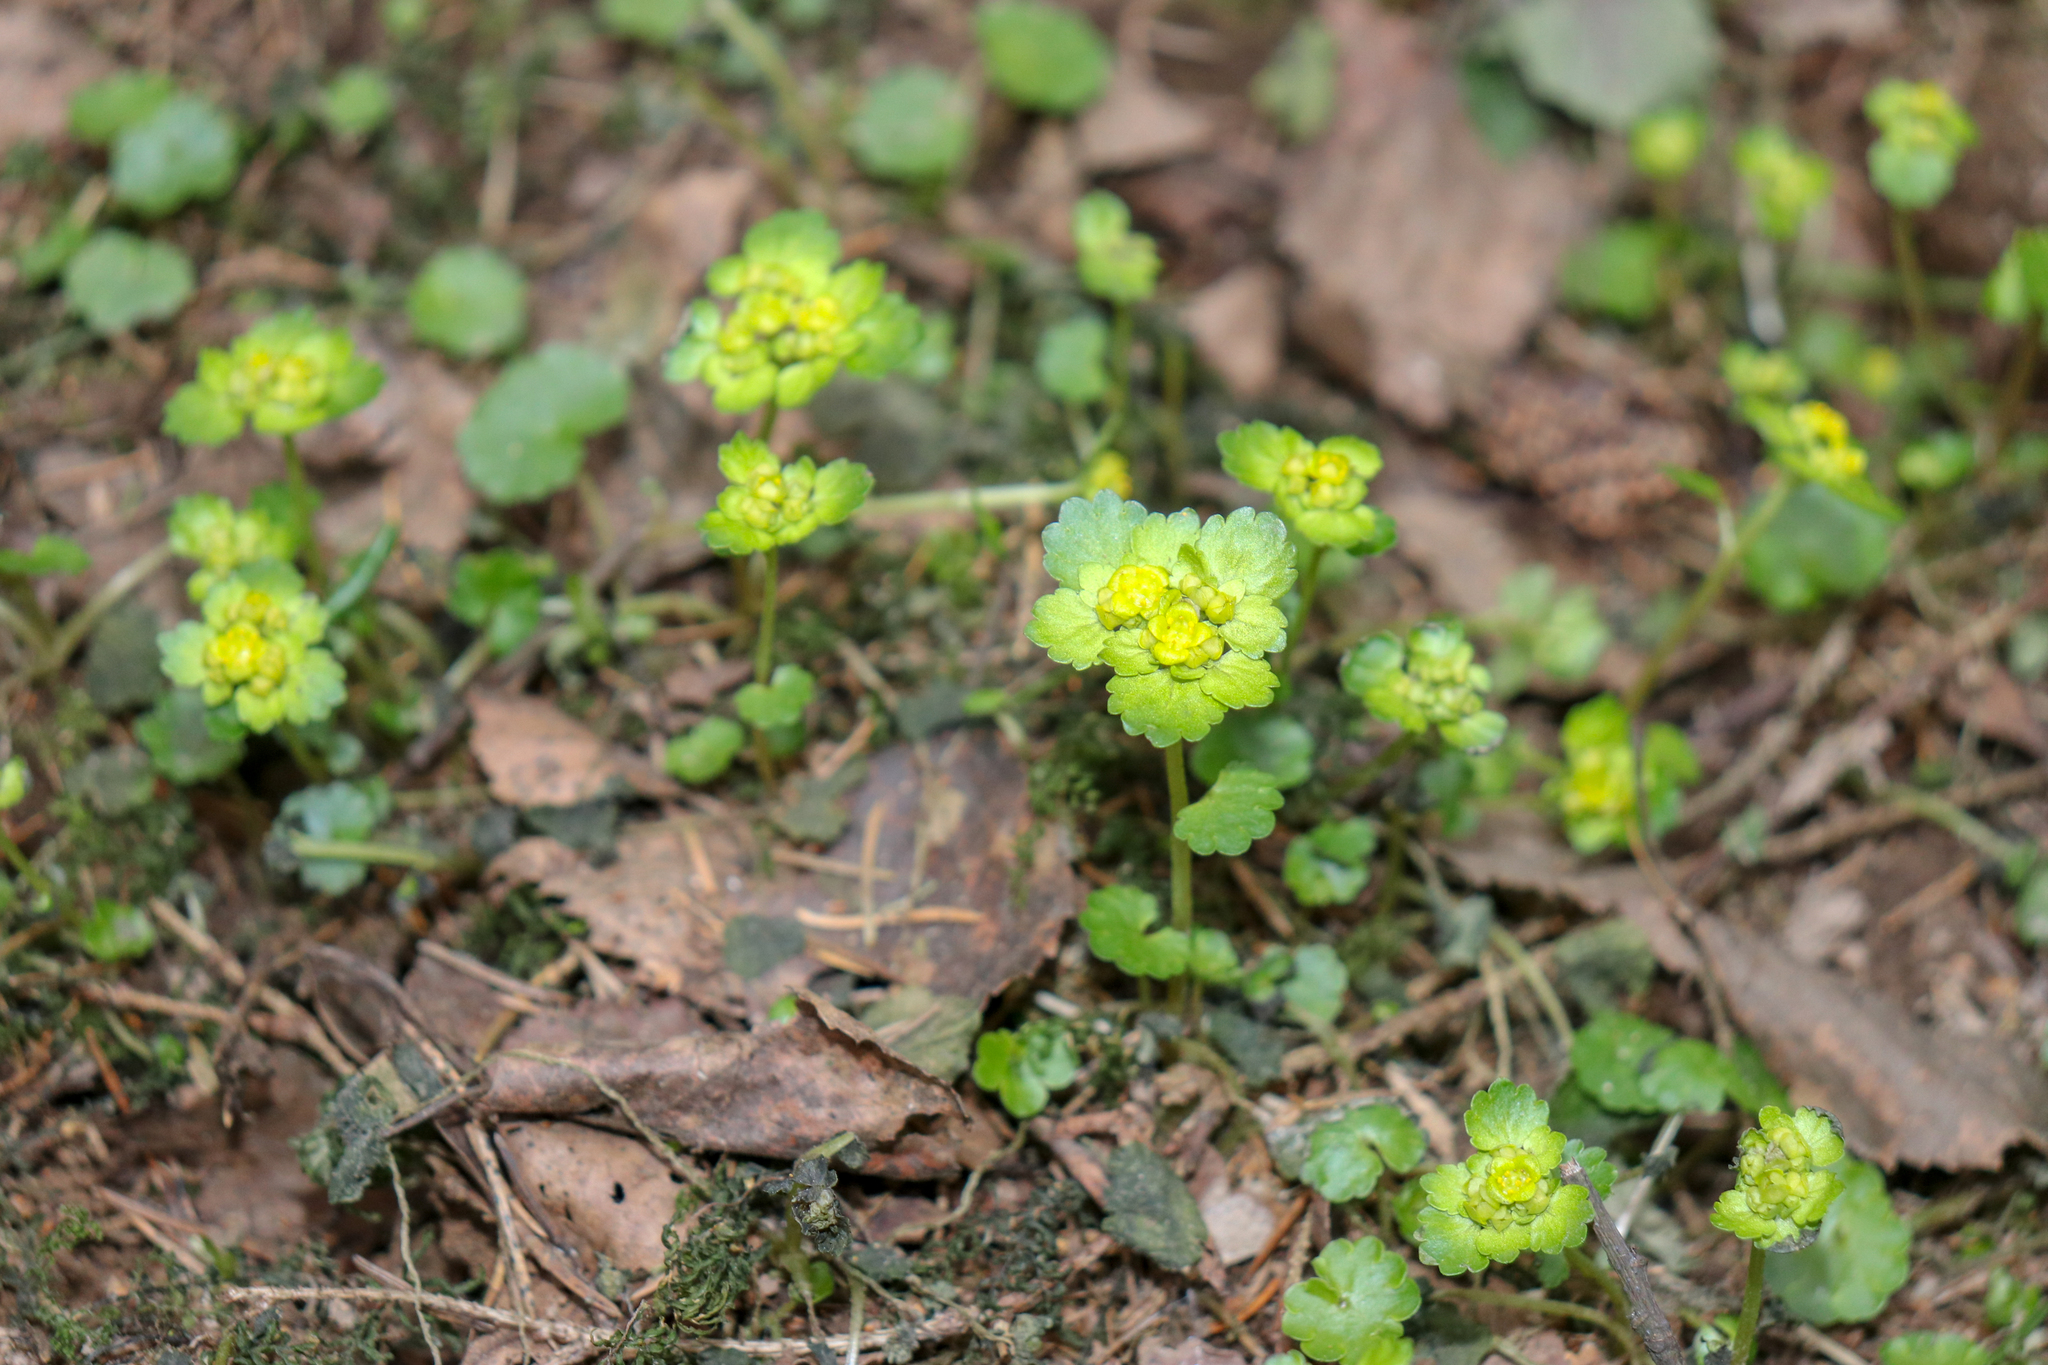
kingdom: Plantae
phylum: Tracheophyta
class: Magnoliopsida
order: Saxifragales
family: Saxifragaceae
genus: Chrysosplenium
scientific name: Chrysosplenium alternifolium
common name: Alternate-leaved golden-saxifrage
